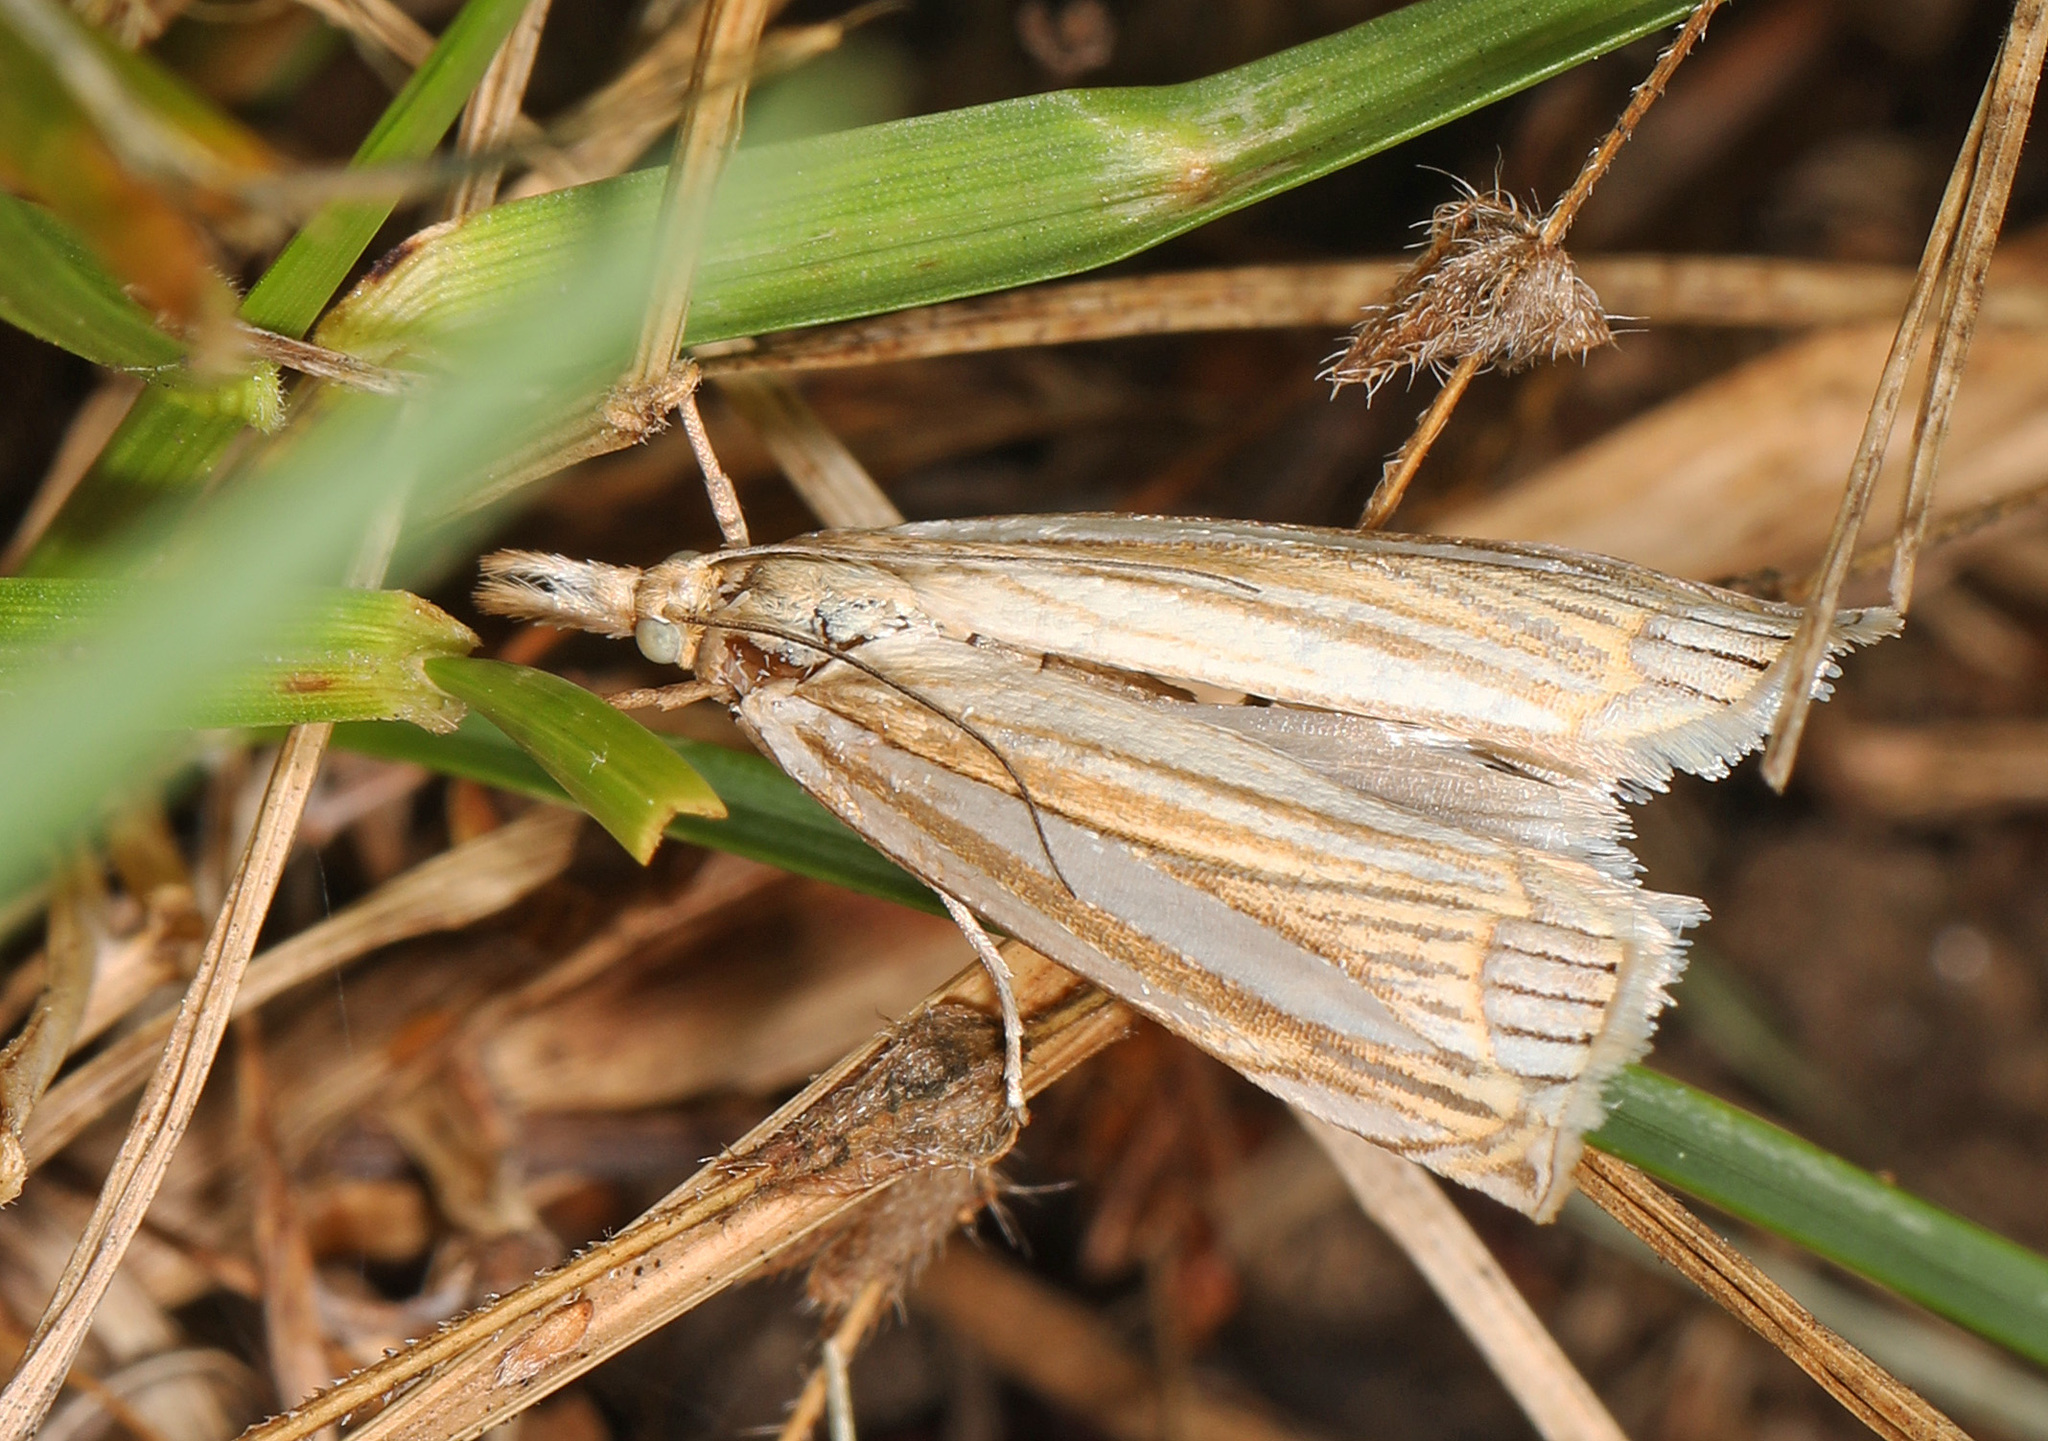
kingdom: Animalia
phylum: Arthropoda
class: Insecta
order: Lepidoptera
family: Crambidae
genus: Crambus
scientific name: Crambus laqueatellus
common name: Eastern grass-veneer
